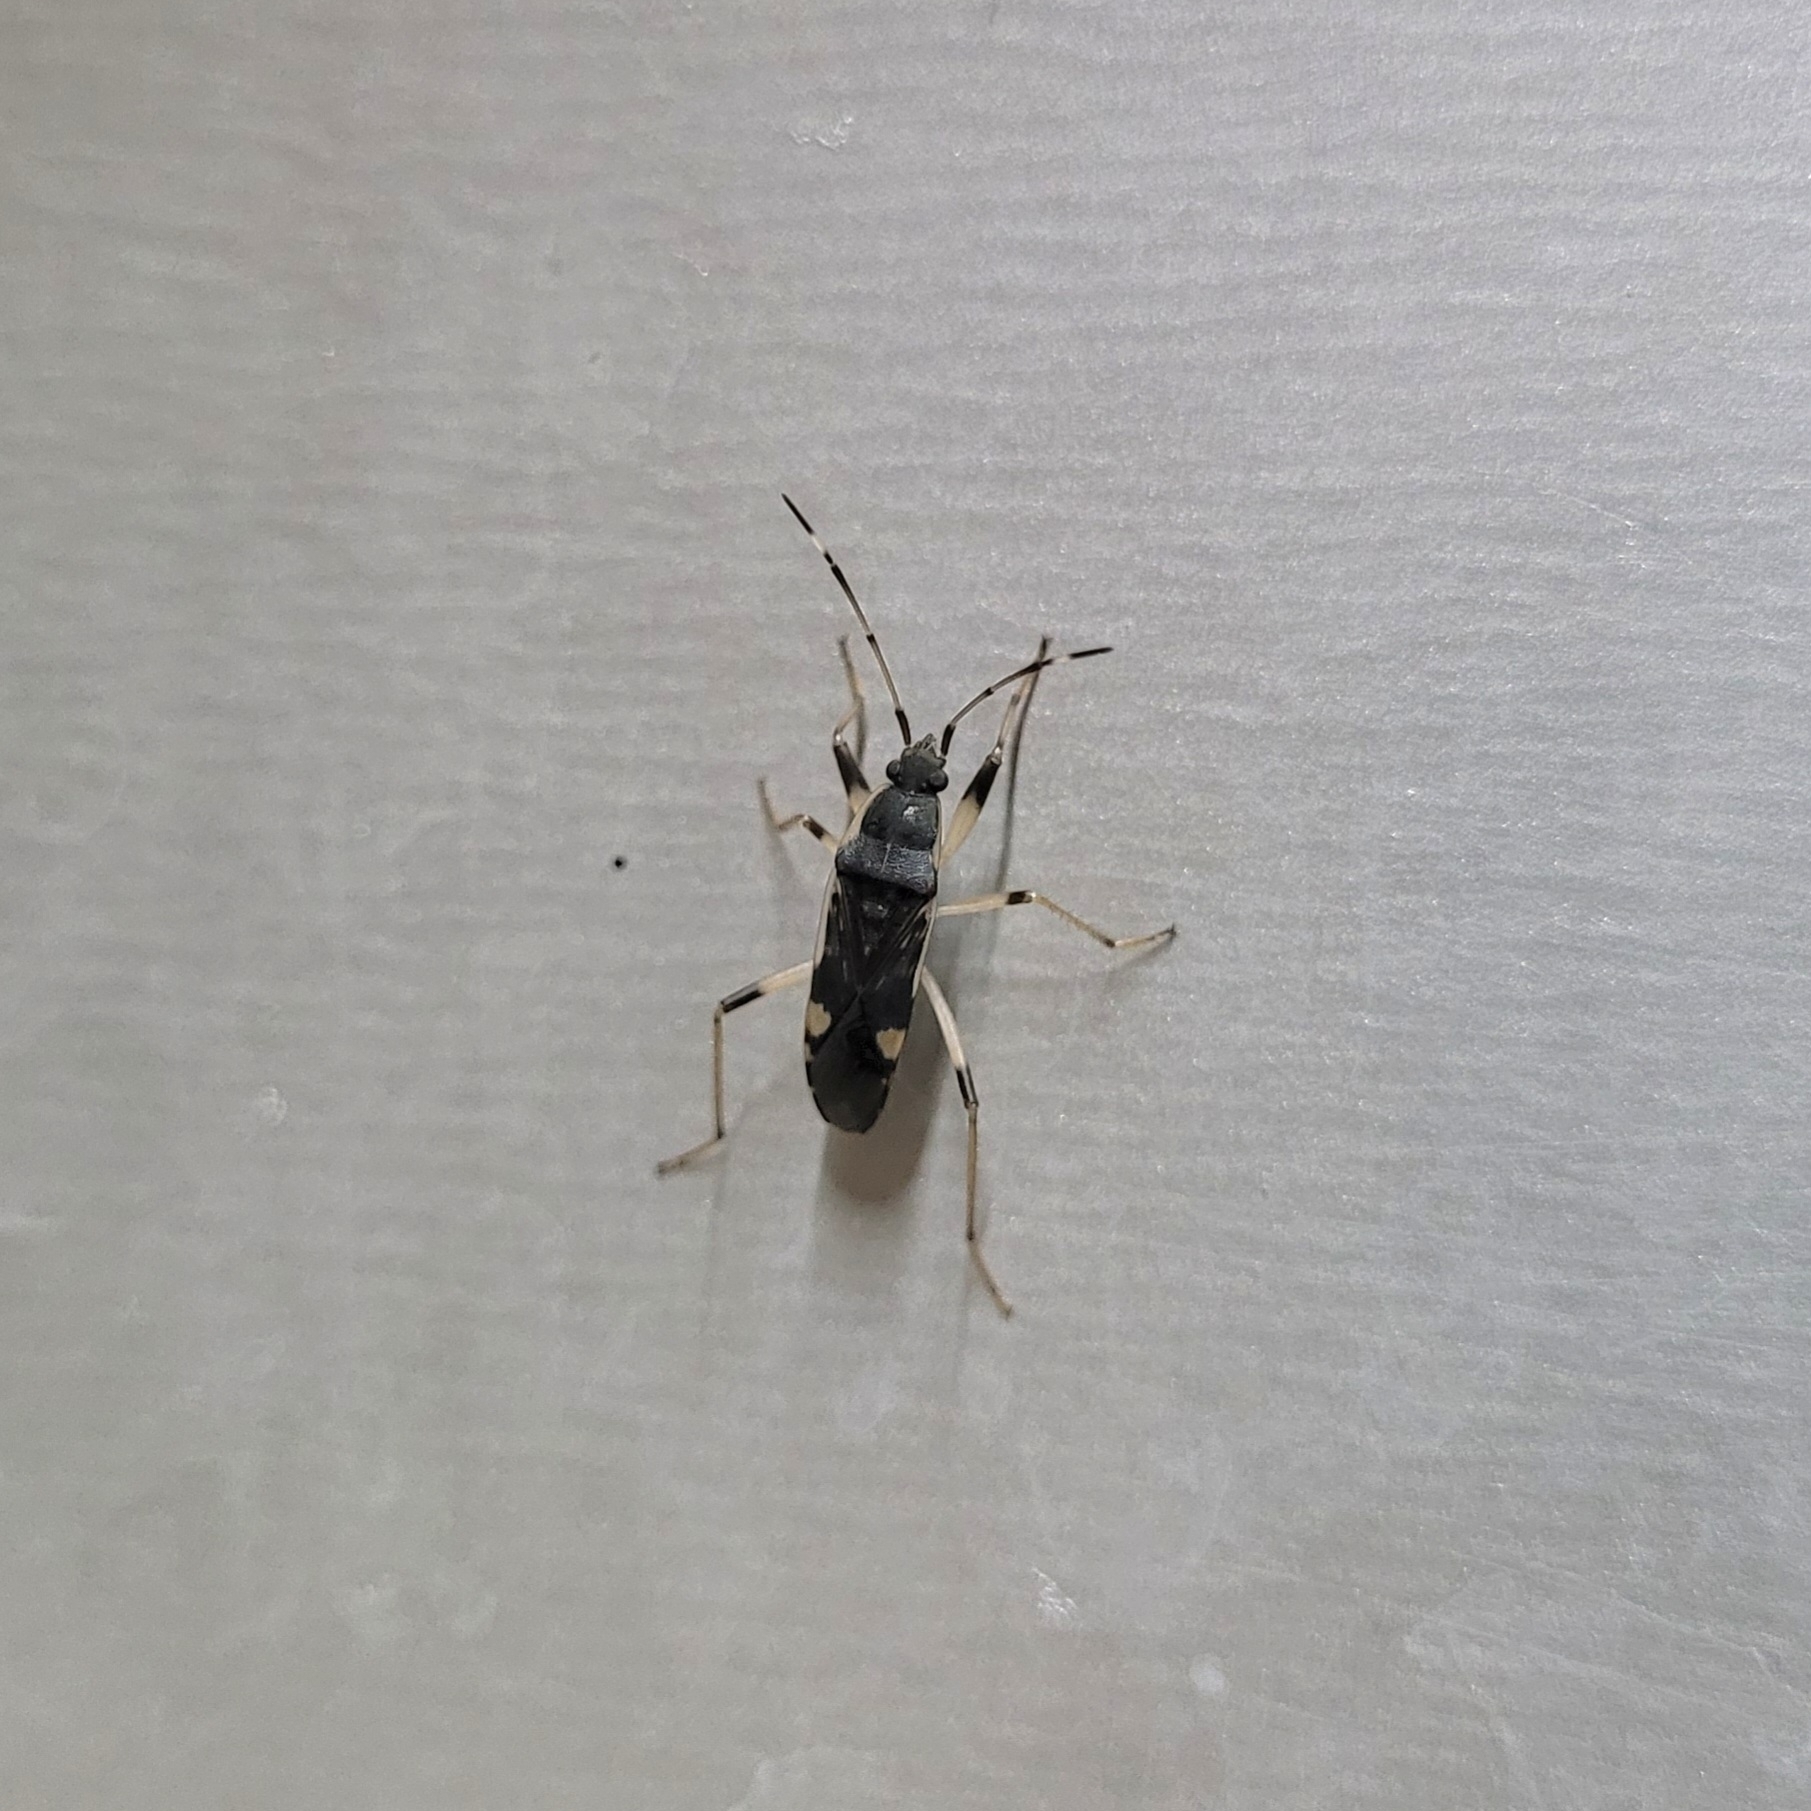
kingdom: Animalia
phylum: Arthropoda
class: Insecta
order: Hemiptera
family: Rhyparochromidae
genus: Dieuches
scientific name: Dieuches armatipes
